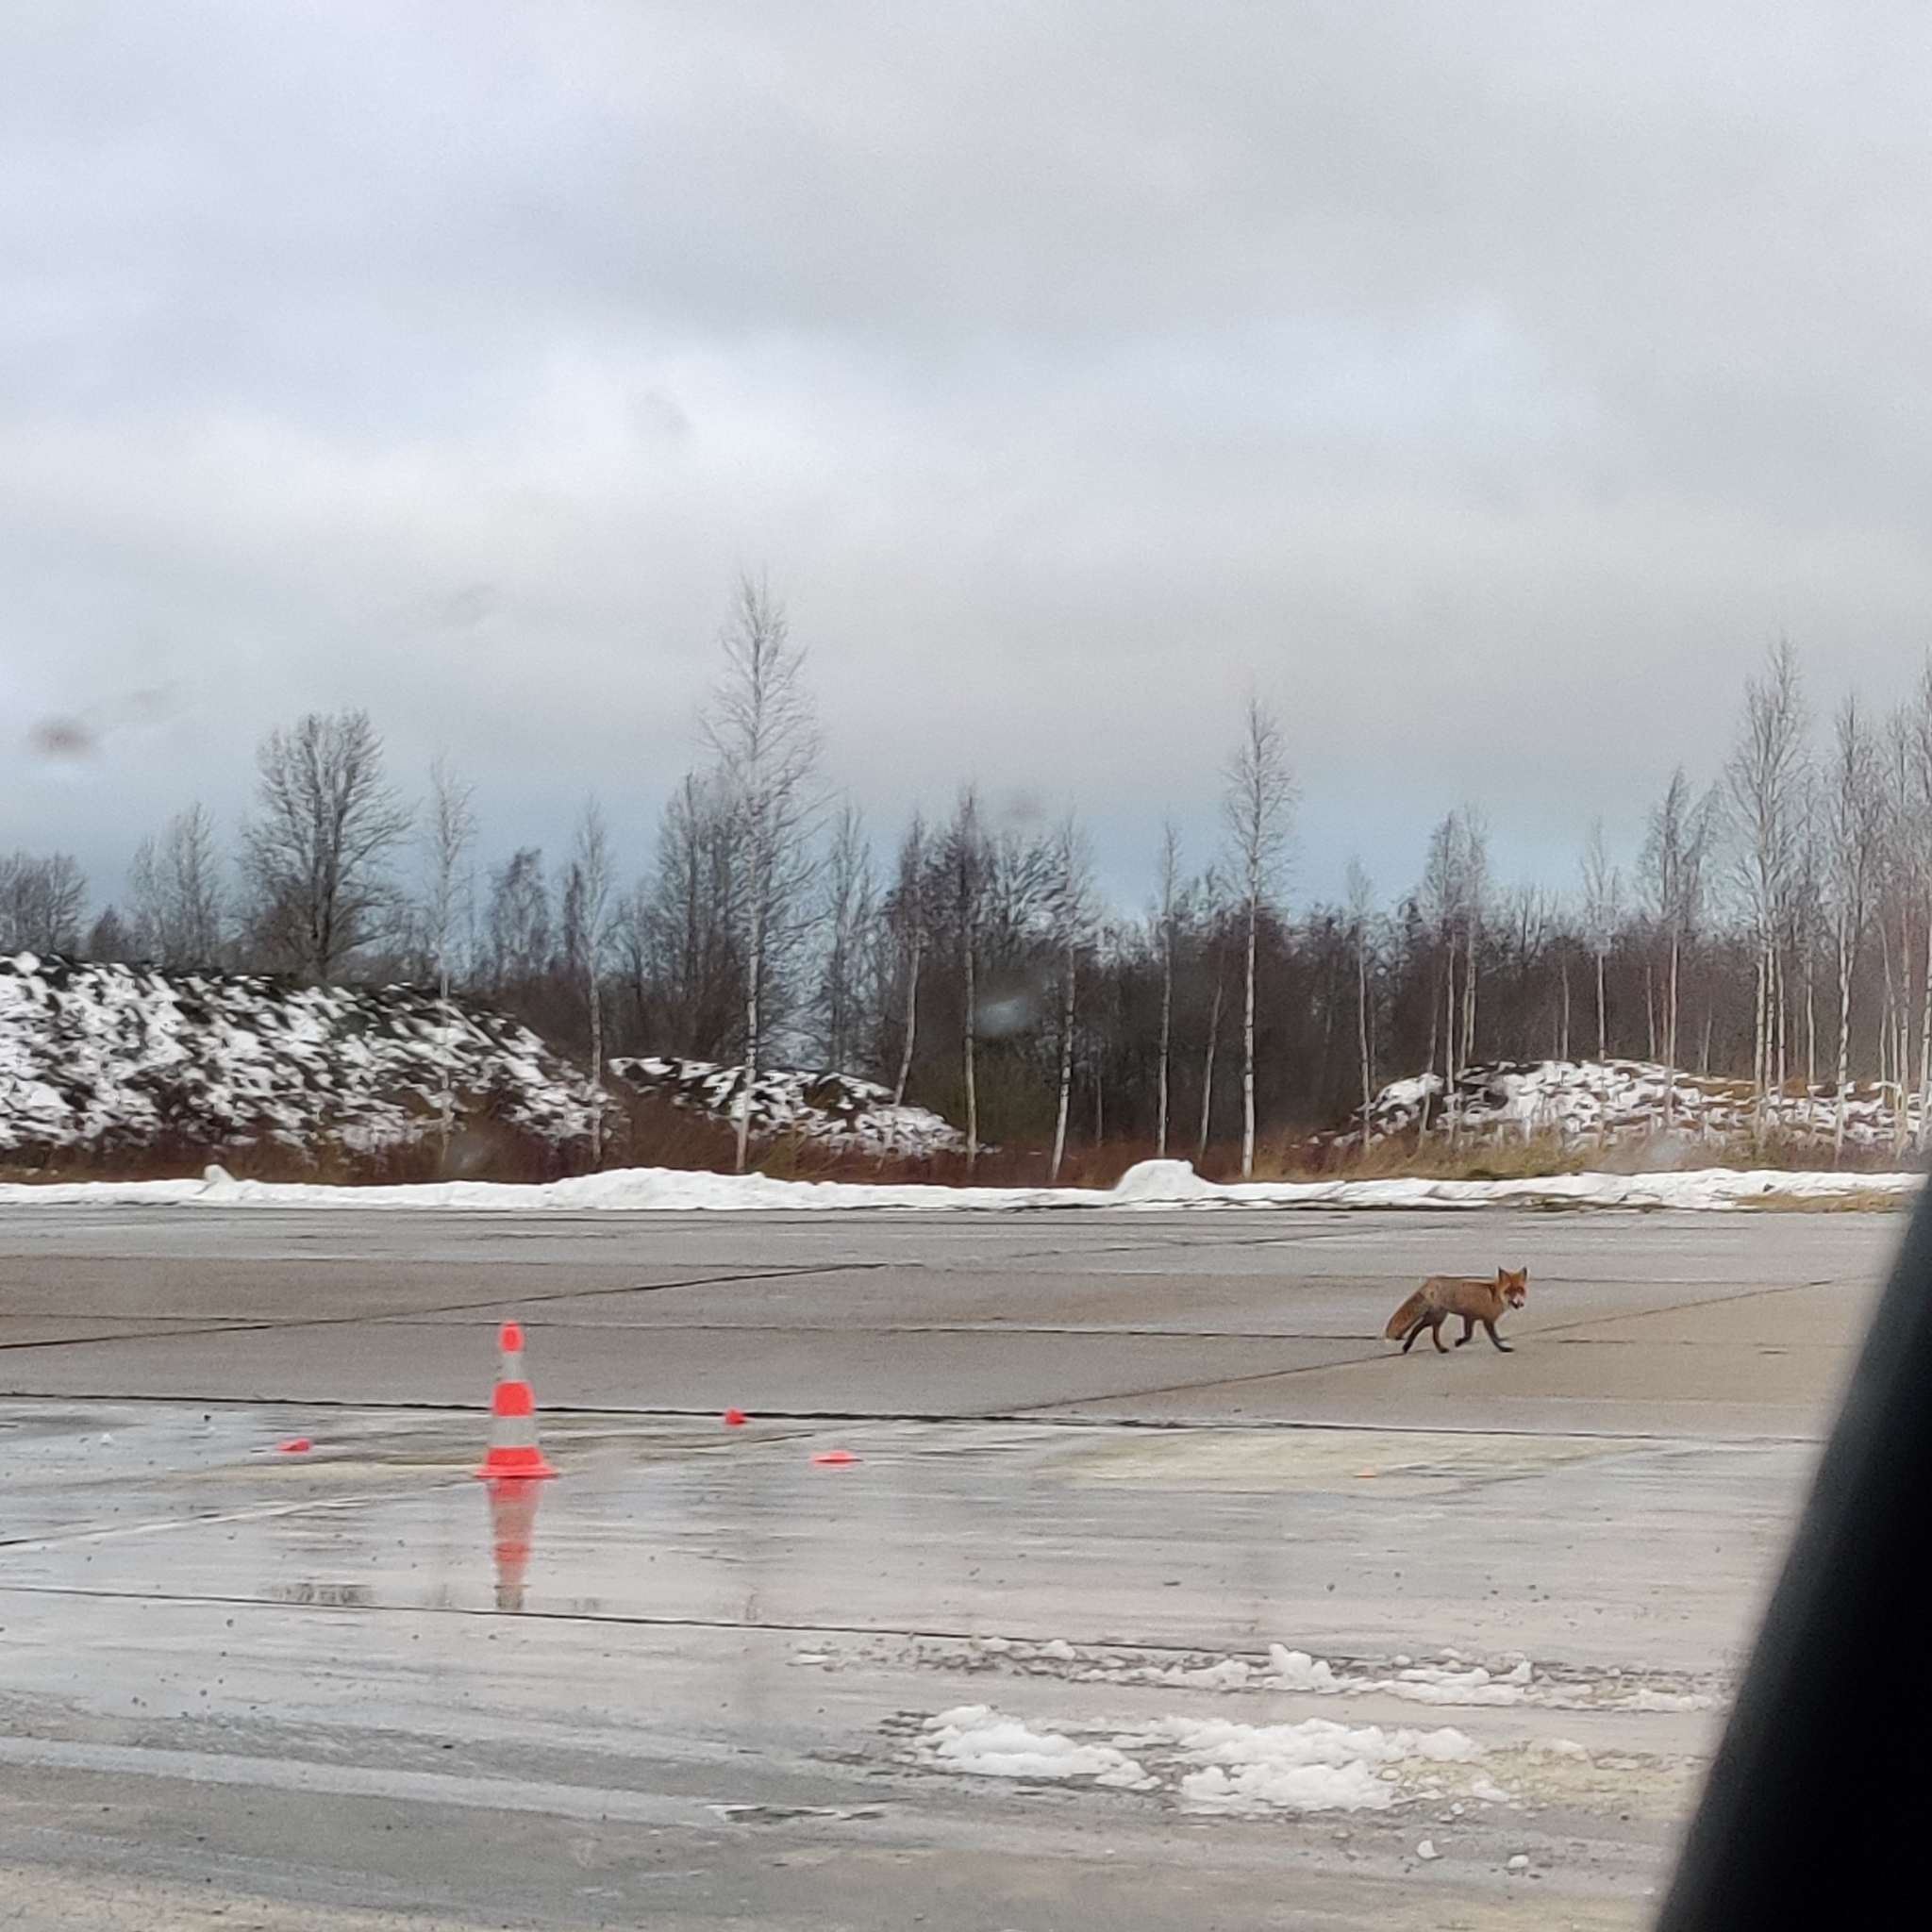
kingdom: Animalia
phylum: Chordata
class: Mammalia
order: Carnivora
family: Canidae
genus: Vulpes
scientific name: Vulpes vulpes
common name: Red fox
